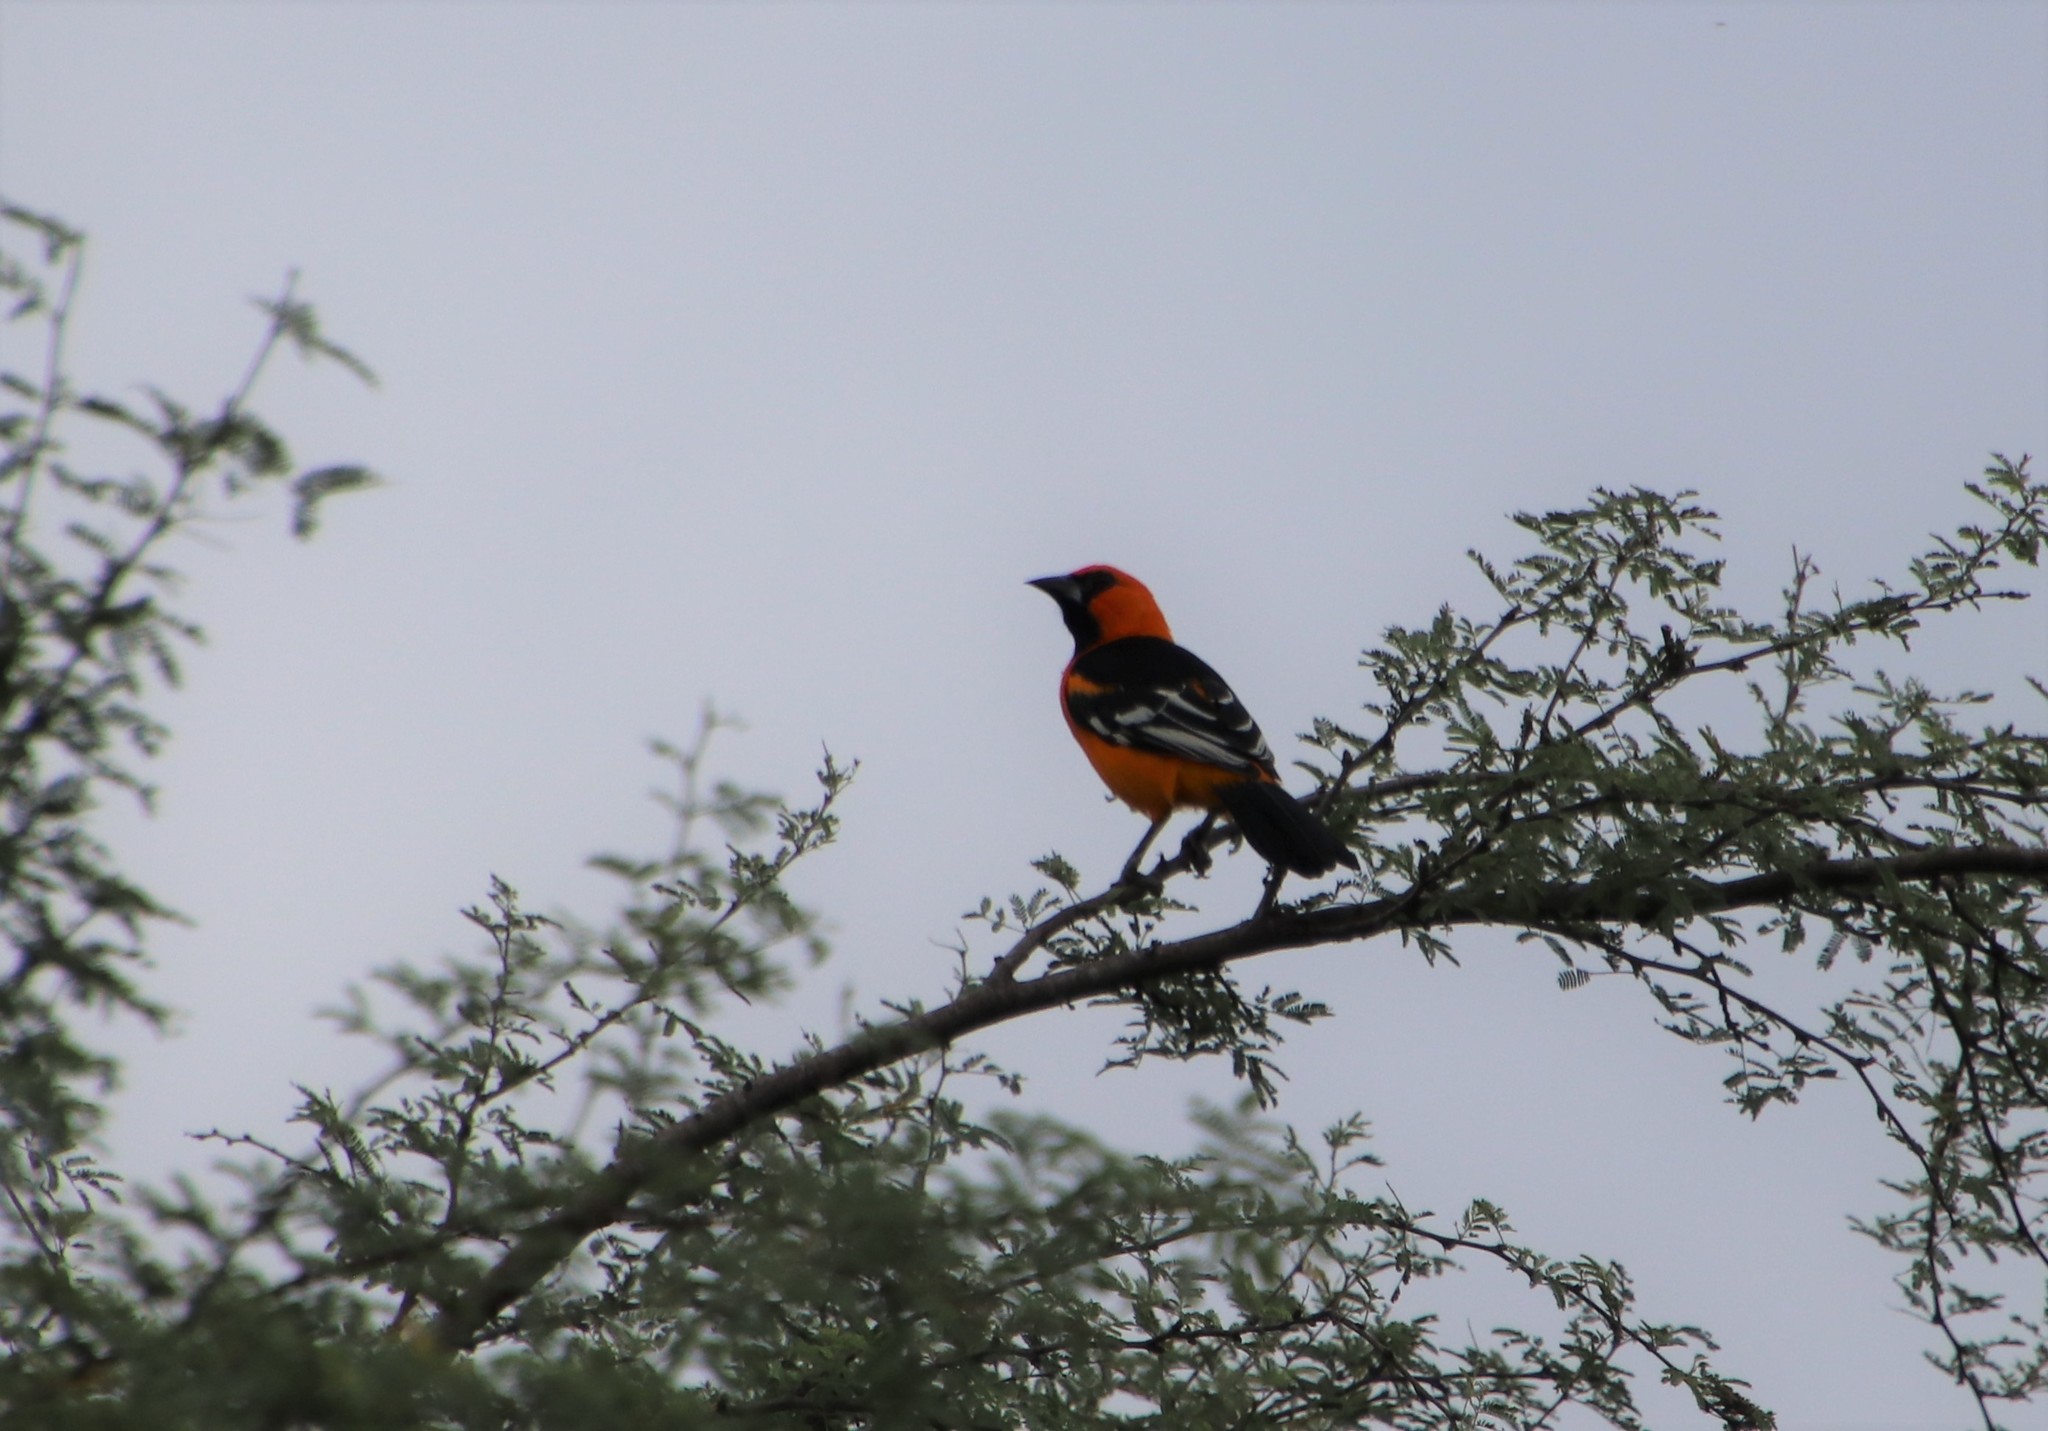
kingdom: Animalia
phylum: Chordata
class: Aves
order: Passeriformes
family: Icteridae
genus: Icterus
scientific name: Icterus gularis
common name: Altamira oriole
